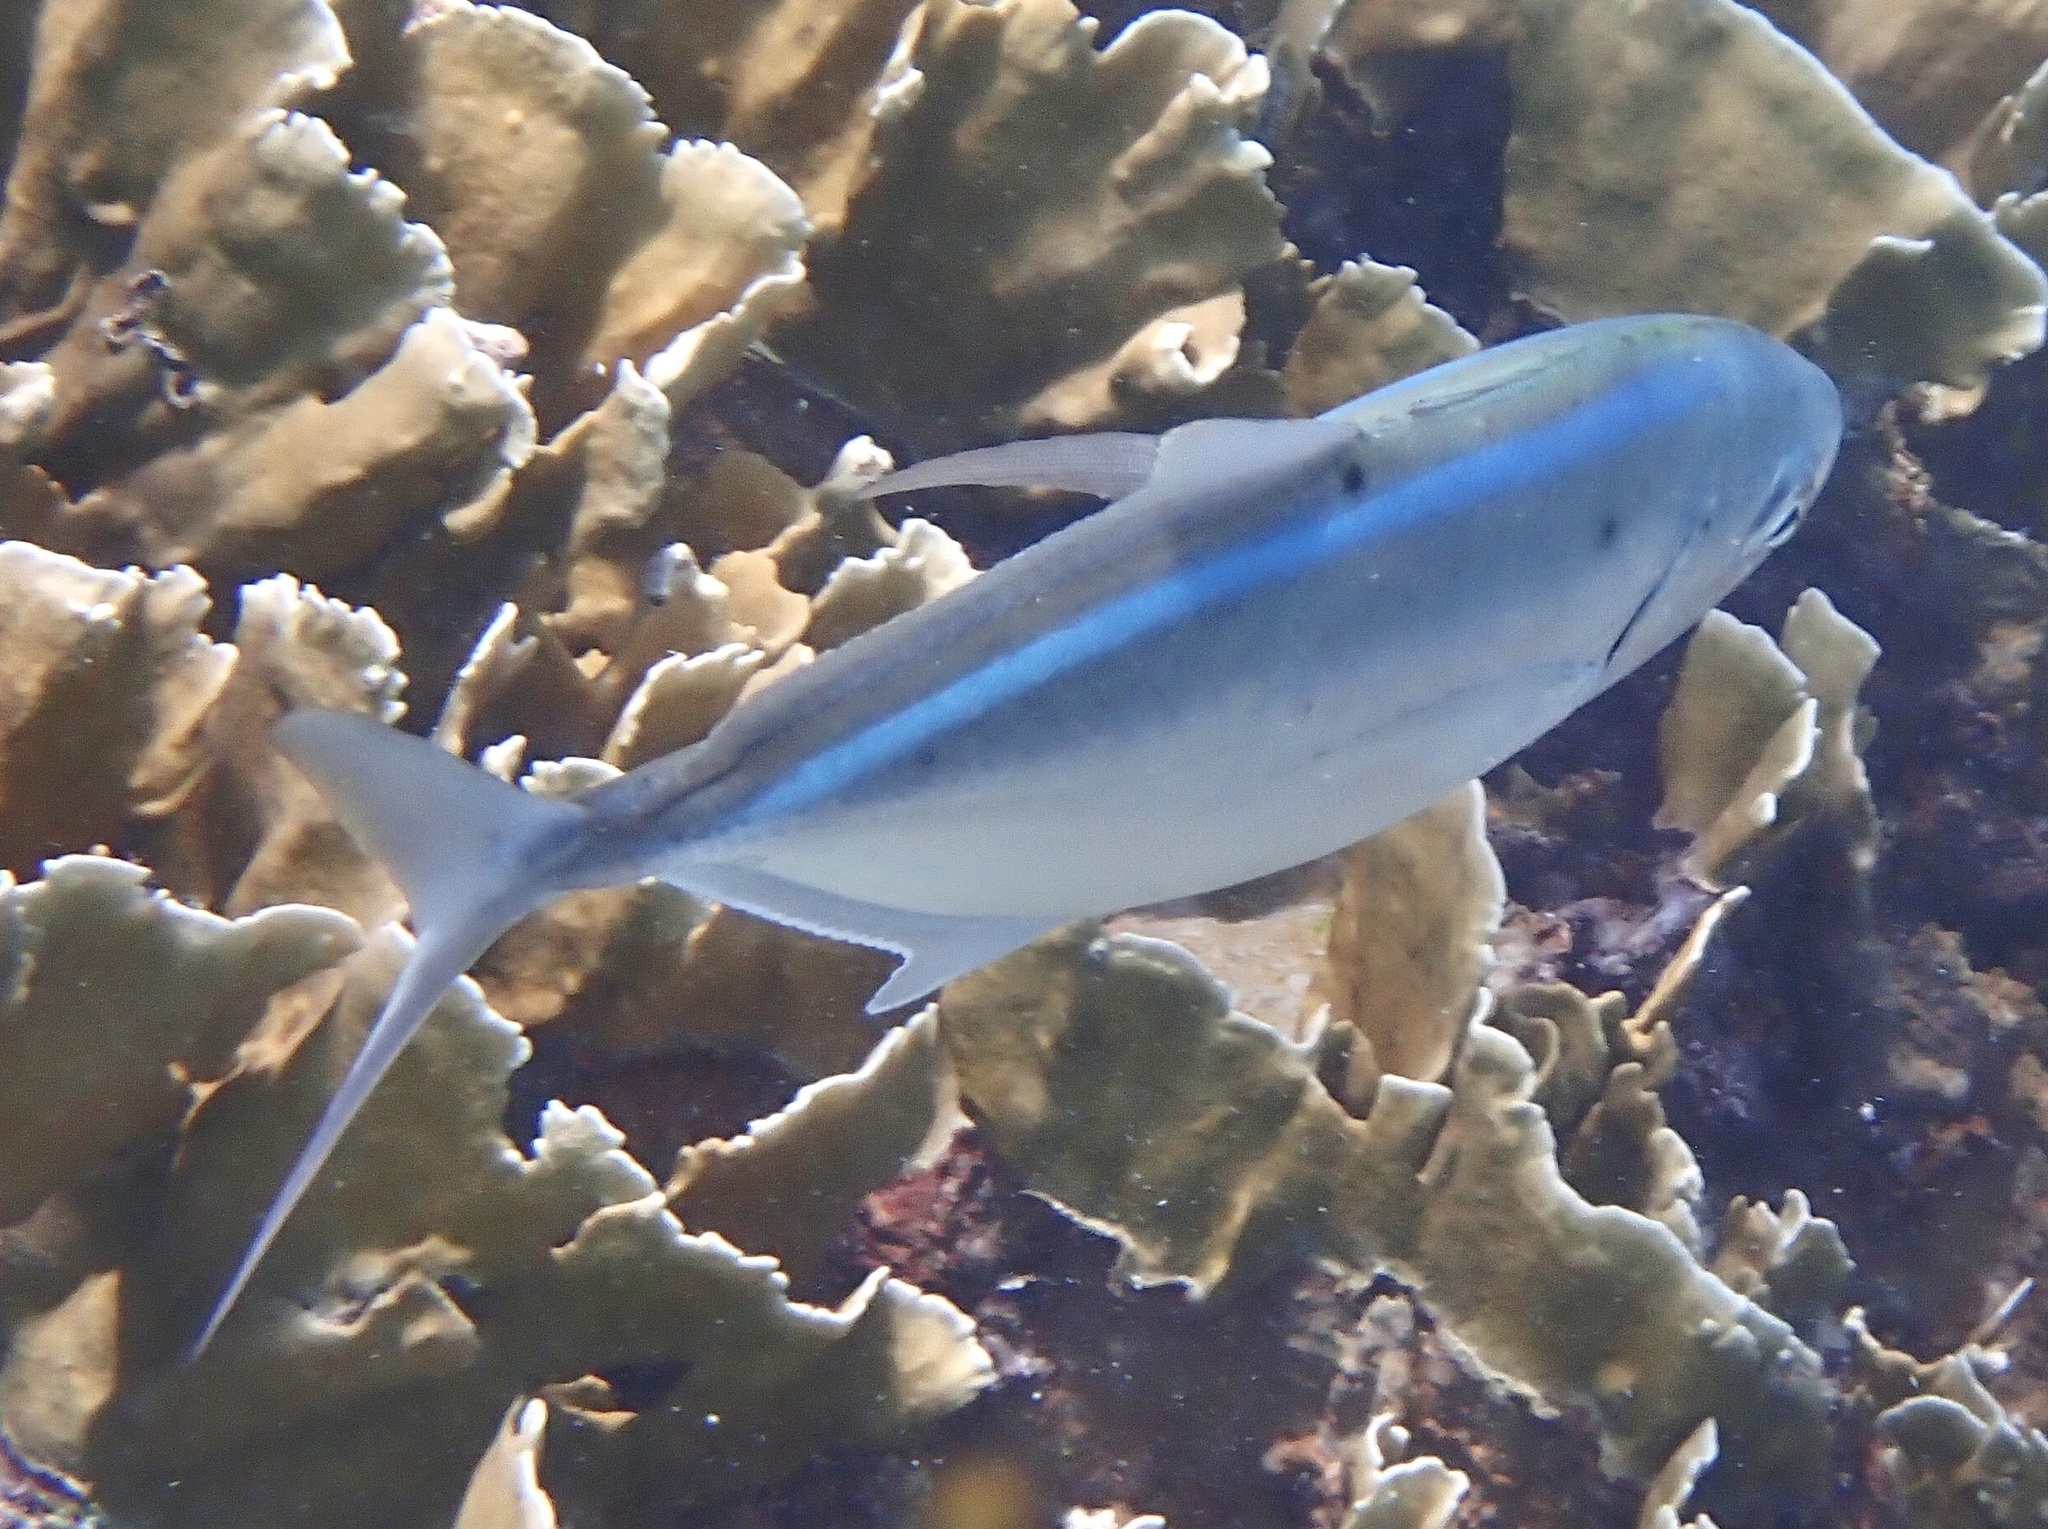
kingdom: Animalia
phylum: Chordata
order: Perciformes
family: Carangidae
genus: Caranx
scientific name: Caranx ruber
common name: Bar jack
